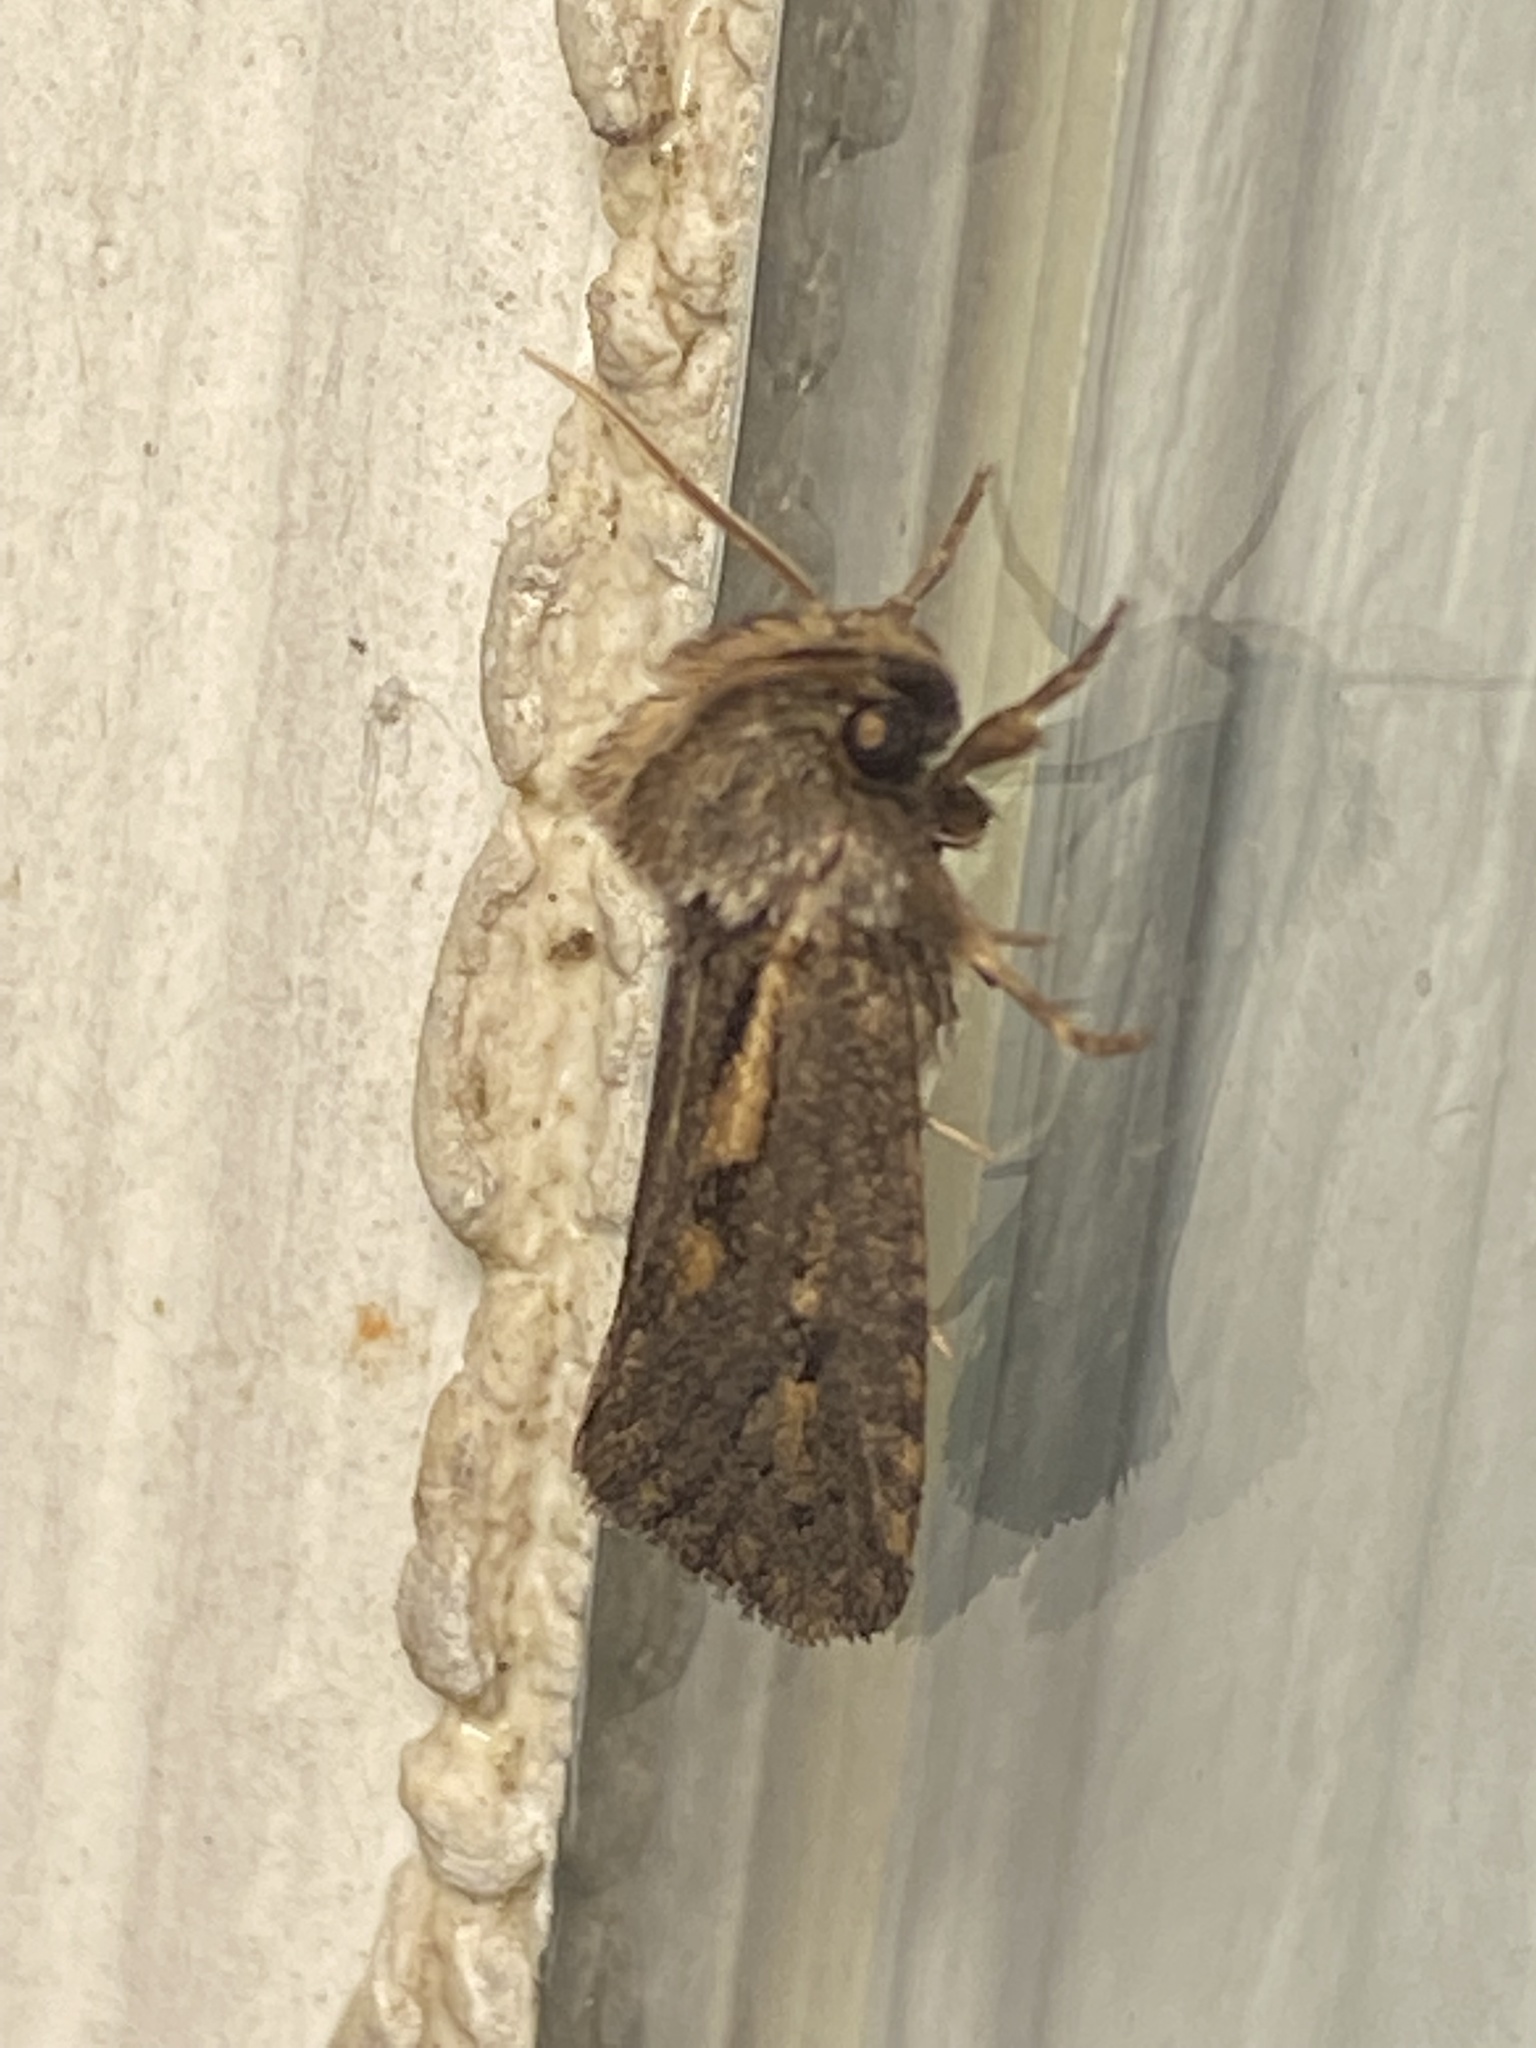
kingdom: Animalia
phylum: Arthropoda
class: Insecta
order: Lepidoptera
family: Tineidae
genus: Acrolophus
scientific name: Acrolophus popeanella
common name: Clemens' grass tubeworm moth
